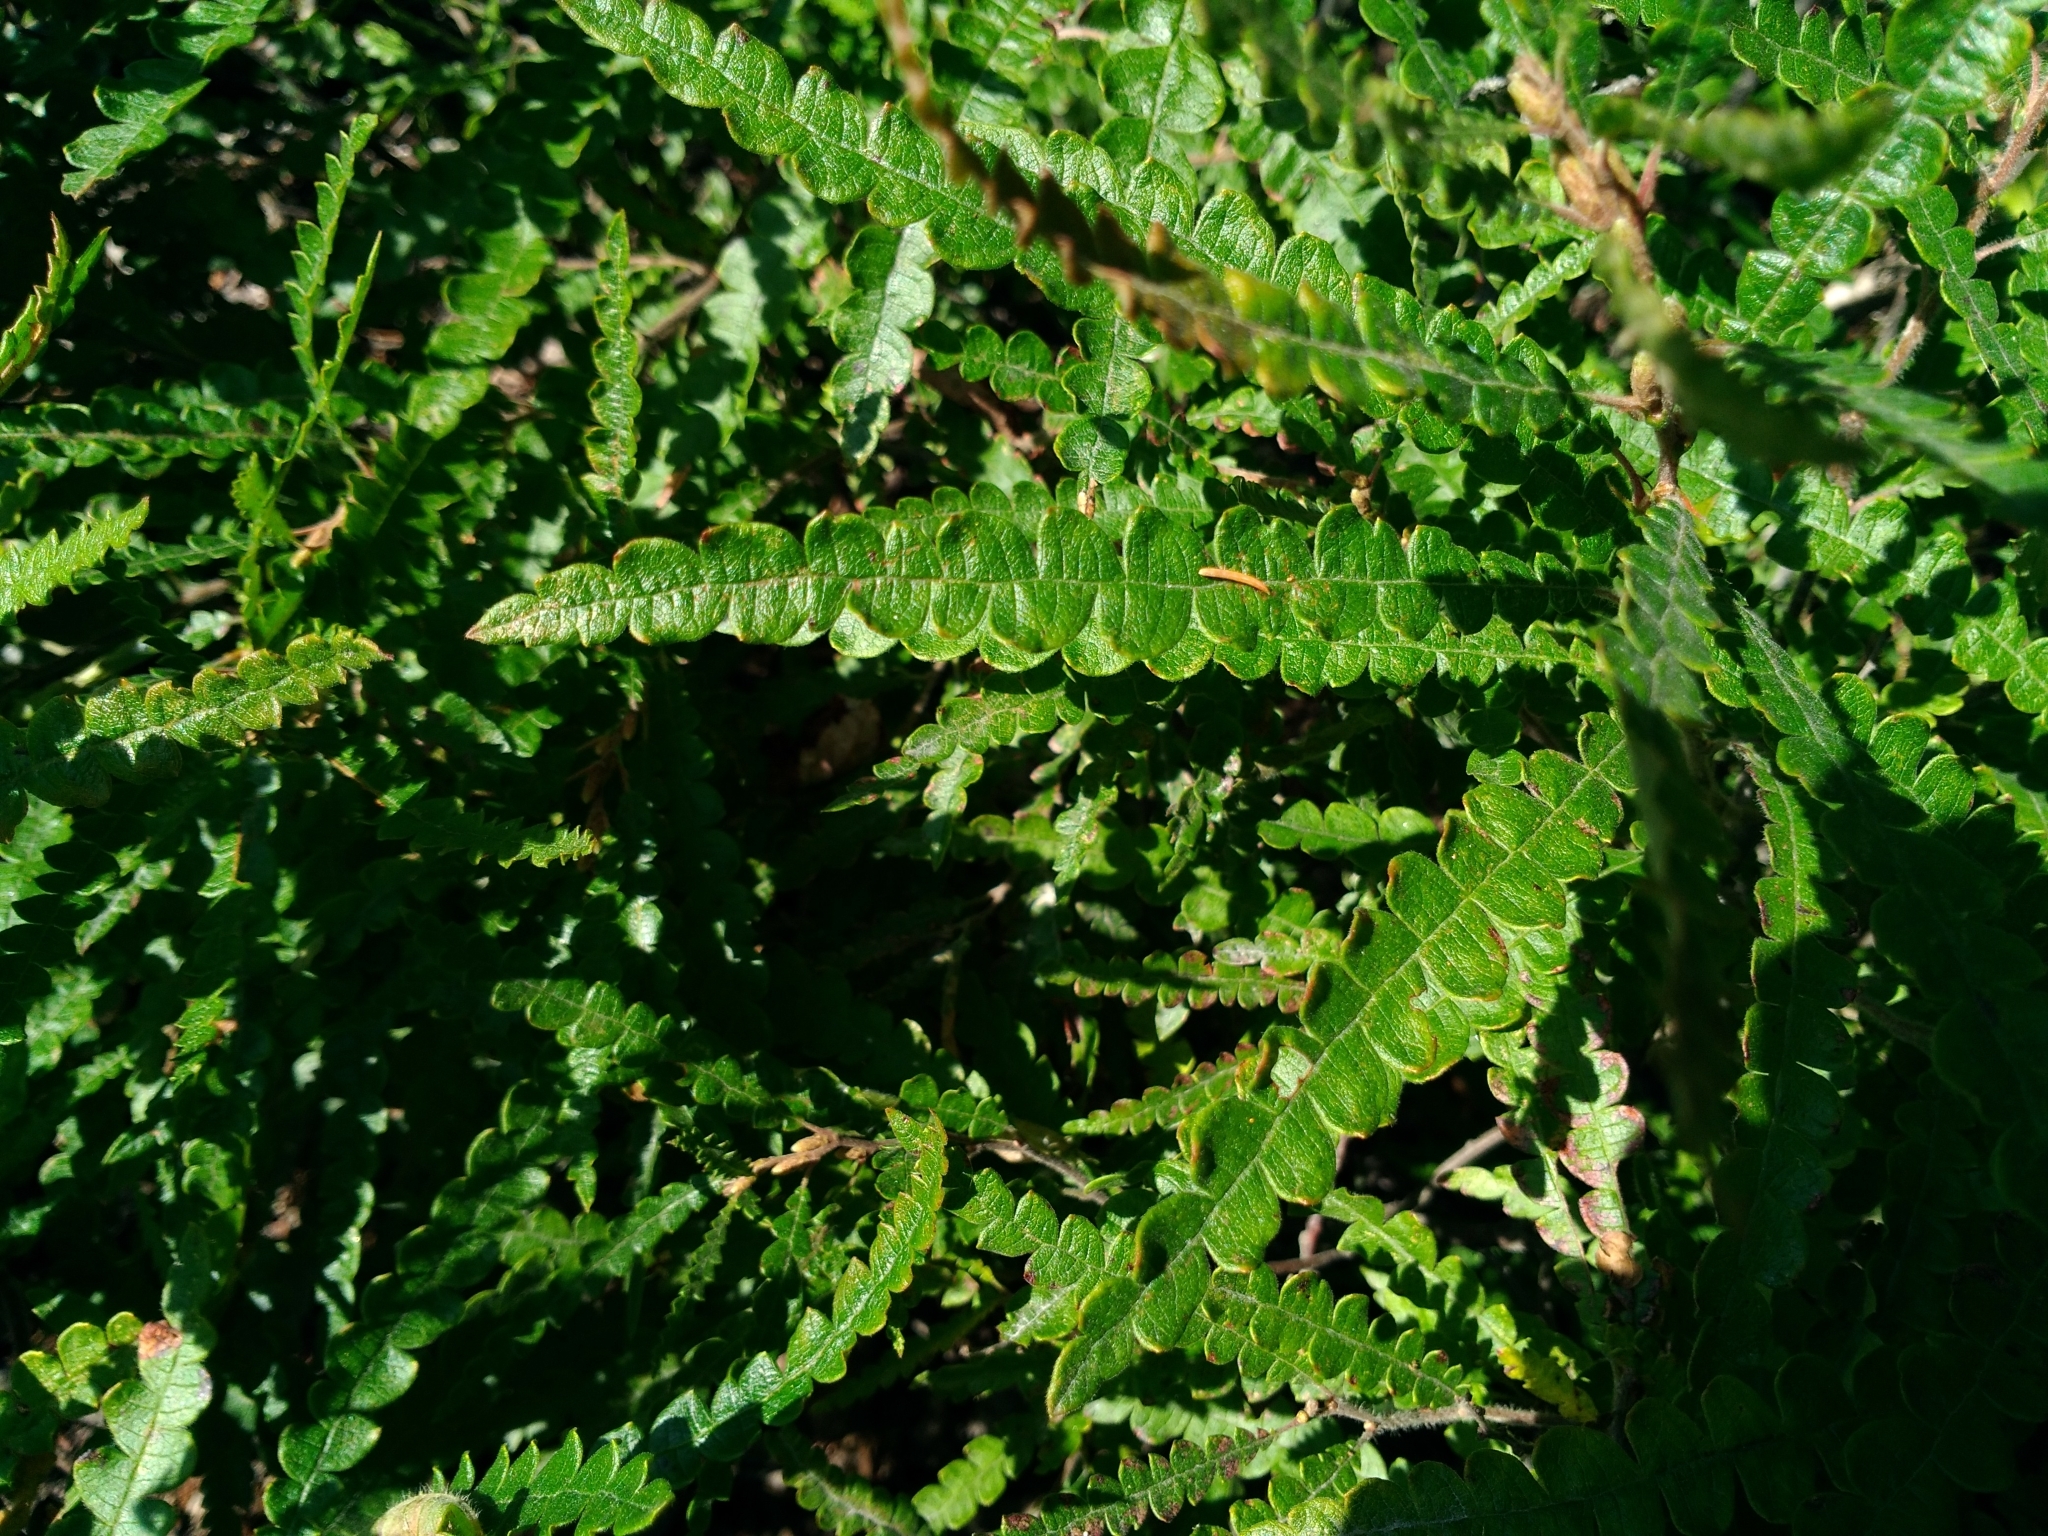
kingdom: Plantae
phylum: Tracheophyta
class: Magnoliopsida
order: Fagales
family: Myricaceae
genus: Comptonia
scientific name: Comptonia peregrina
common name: Sweet-fern
